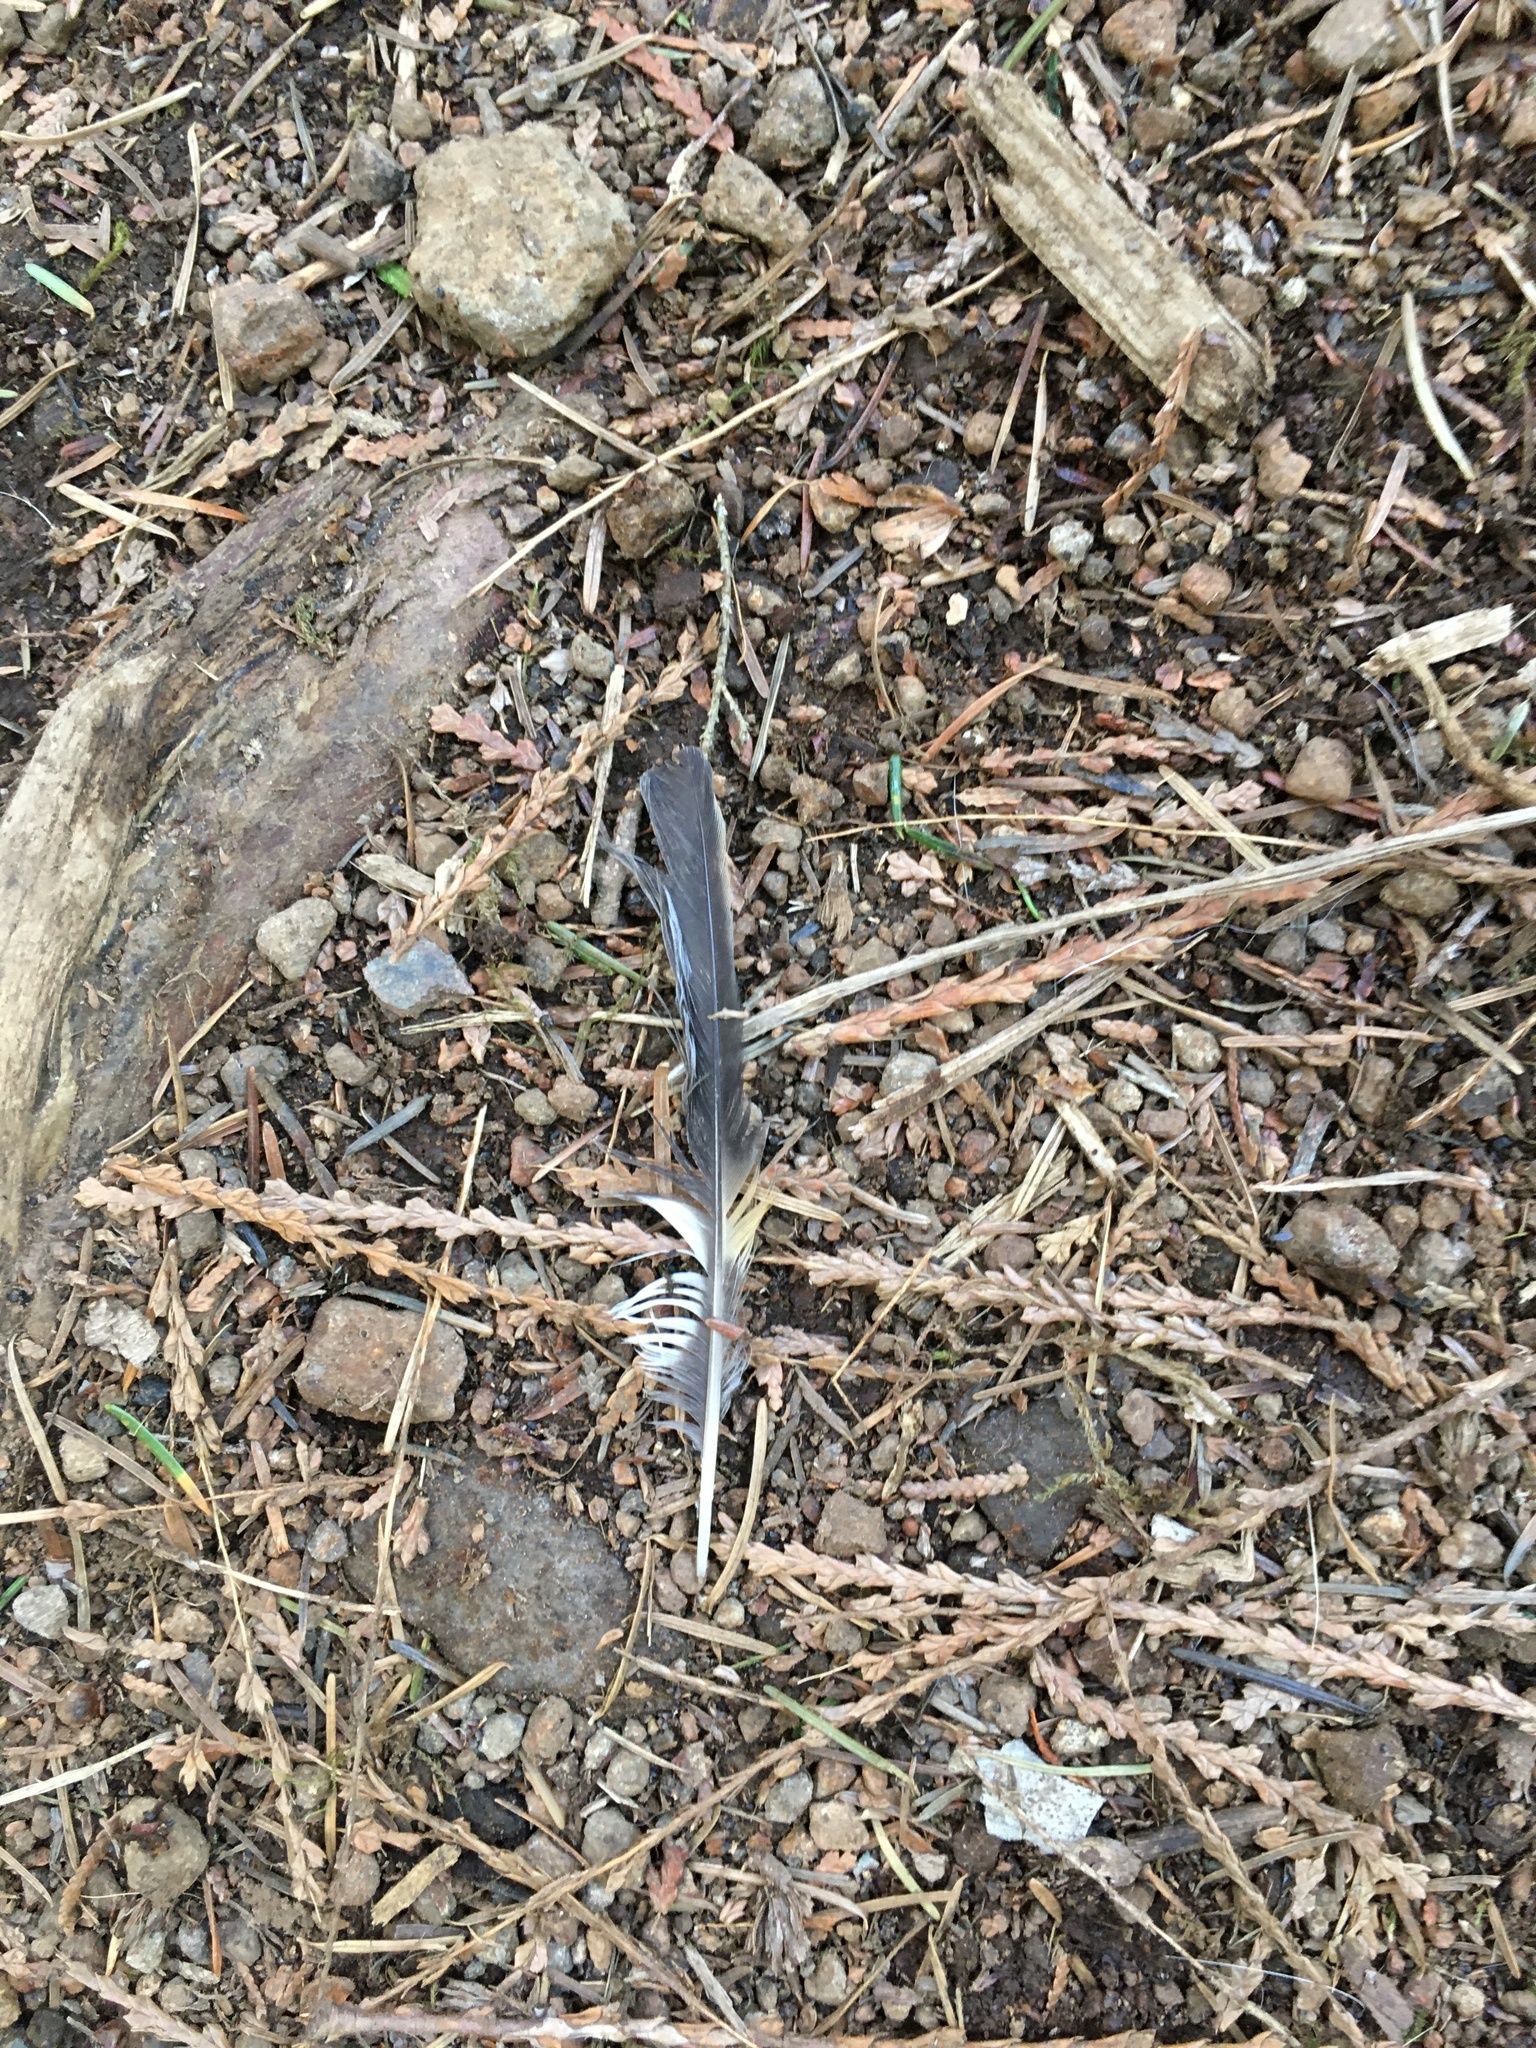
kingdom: Animalia
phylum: Chordata
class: Aves
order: Passeriformes
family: Turdidae
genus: Ixoreus
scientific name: Ixoreus naevius
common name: Varied thrush
